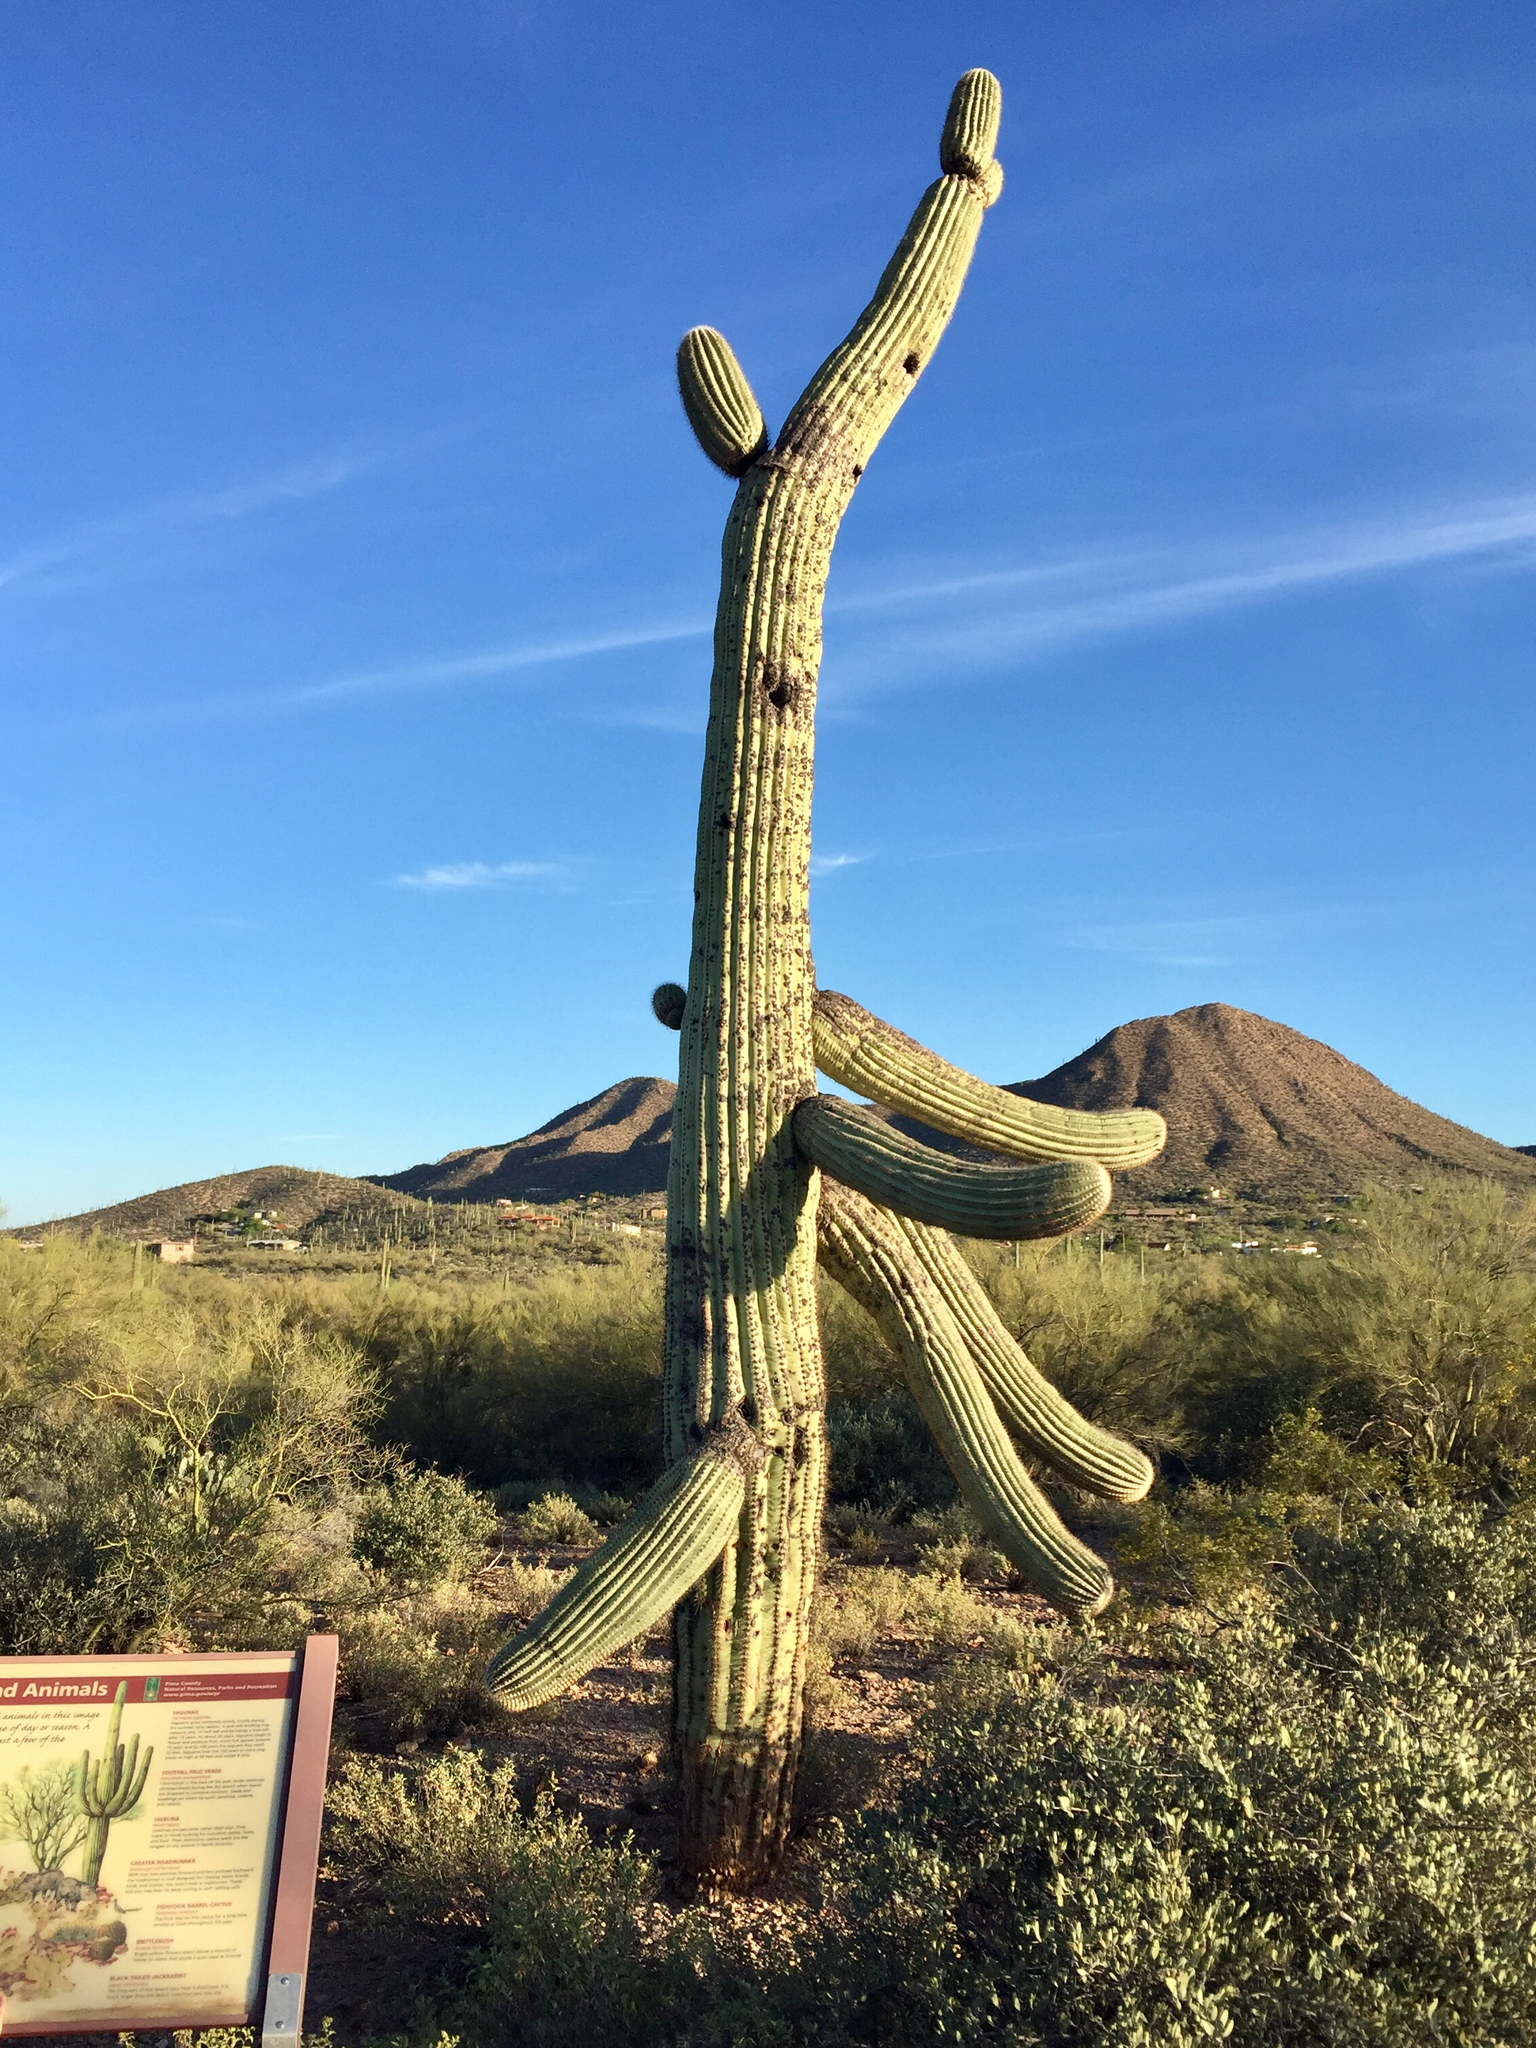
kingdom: Plantae
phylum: Tracheophyta
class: Magnoliopsida
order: Caryophyllales
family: Cactaceae
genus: Carnegiea
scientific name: Carnegiea gigantea
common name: Saguaro
